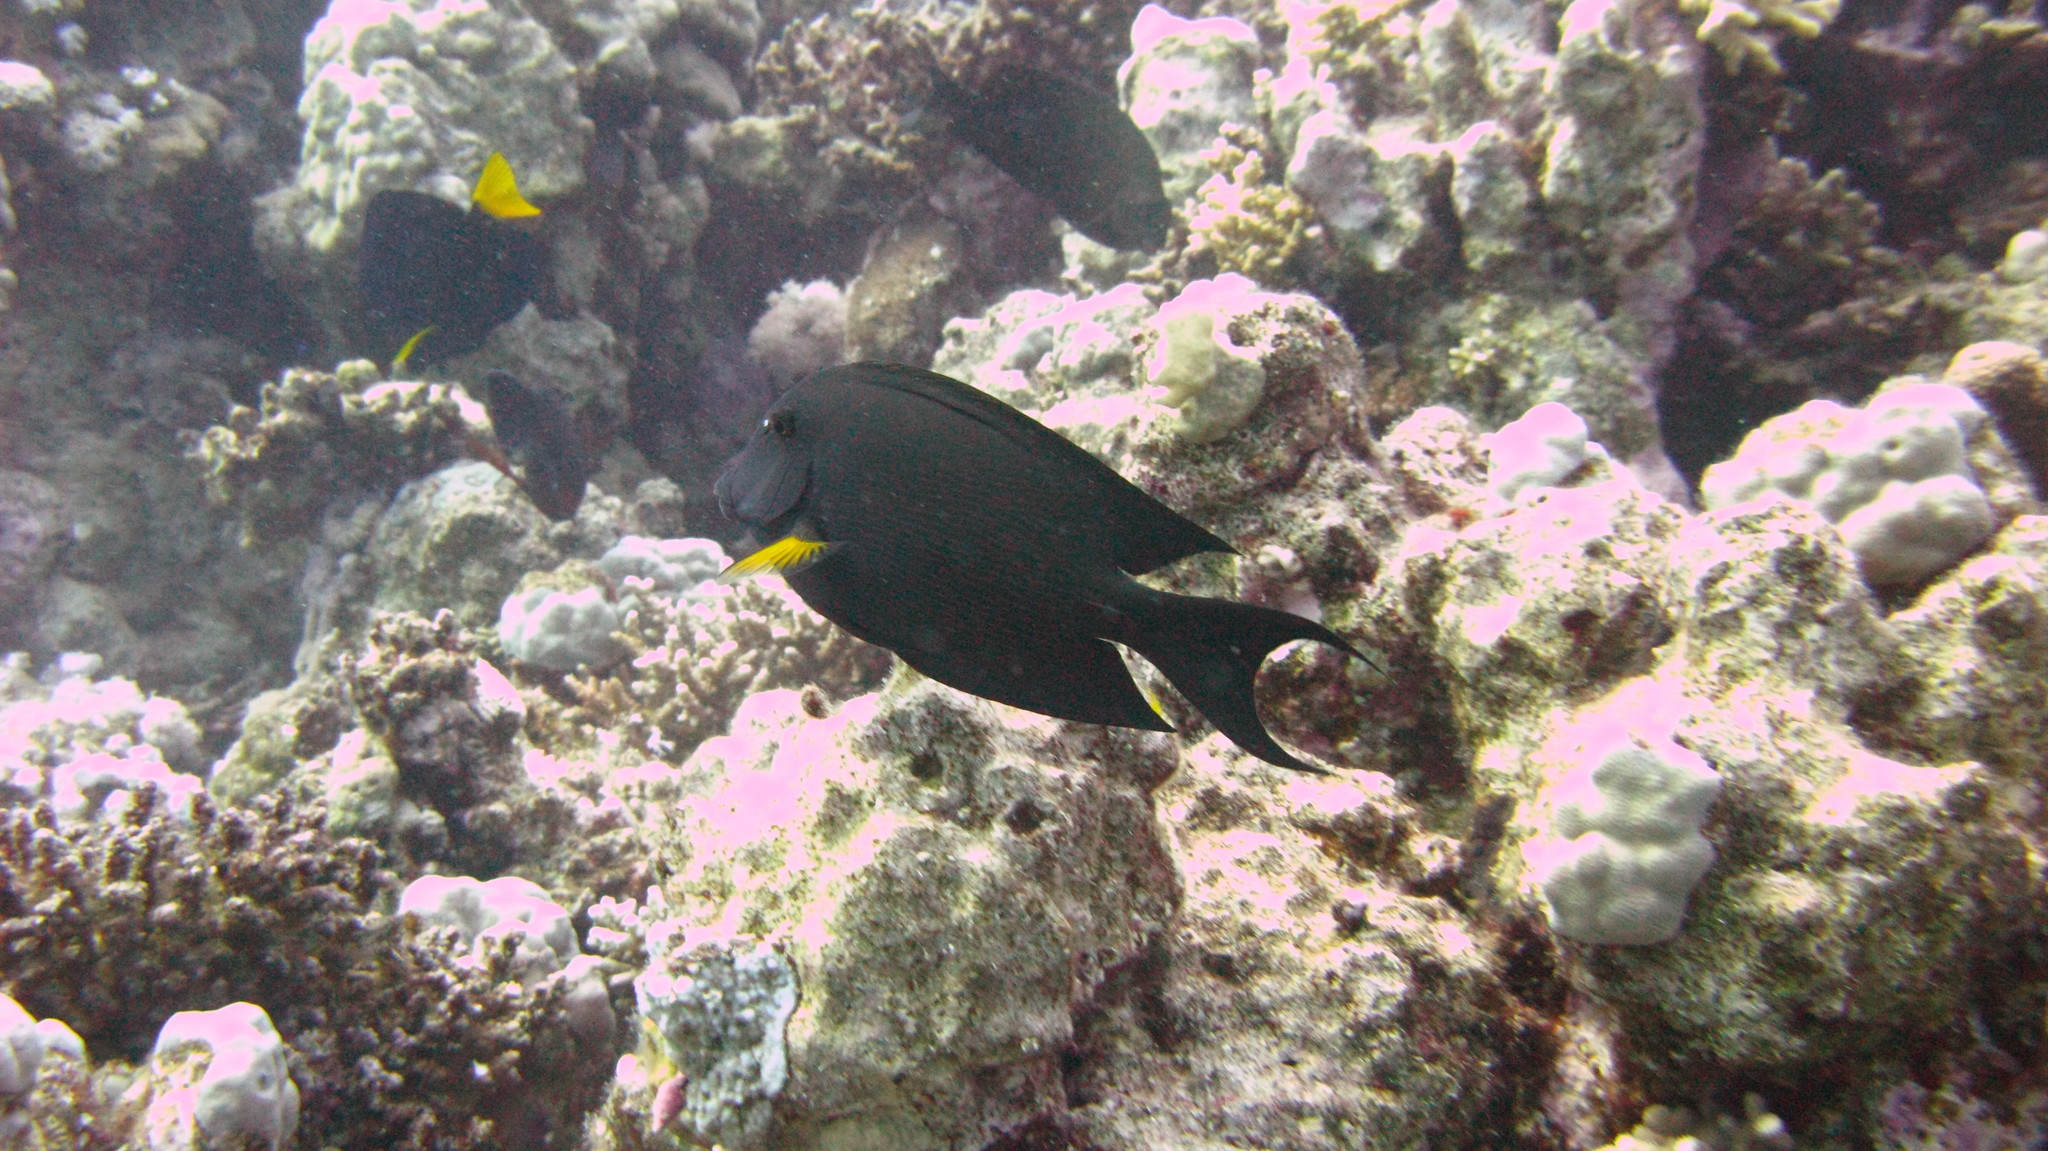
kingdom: Animalia
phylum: Chordata
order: Perciformes
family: Acanthuridae
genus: Ctenochaetus
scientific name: Ctenochaetus striatus
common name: Bristle-toothed surgeonfish
